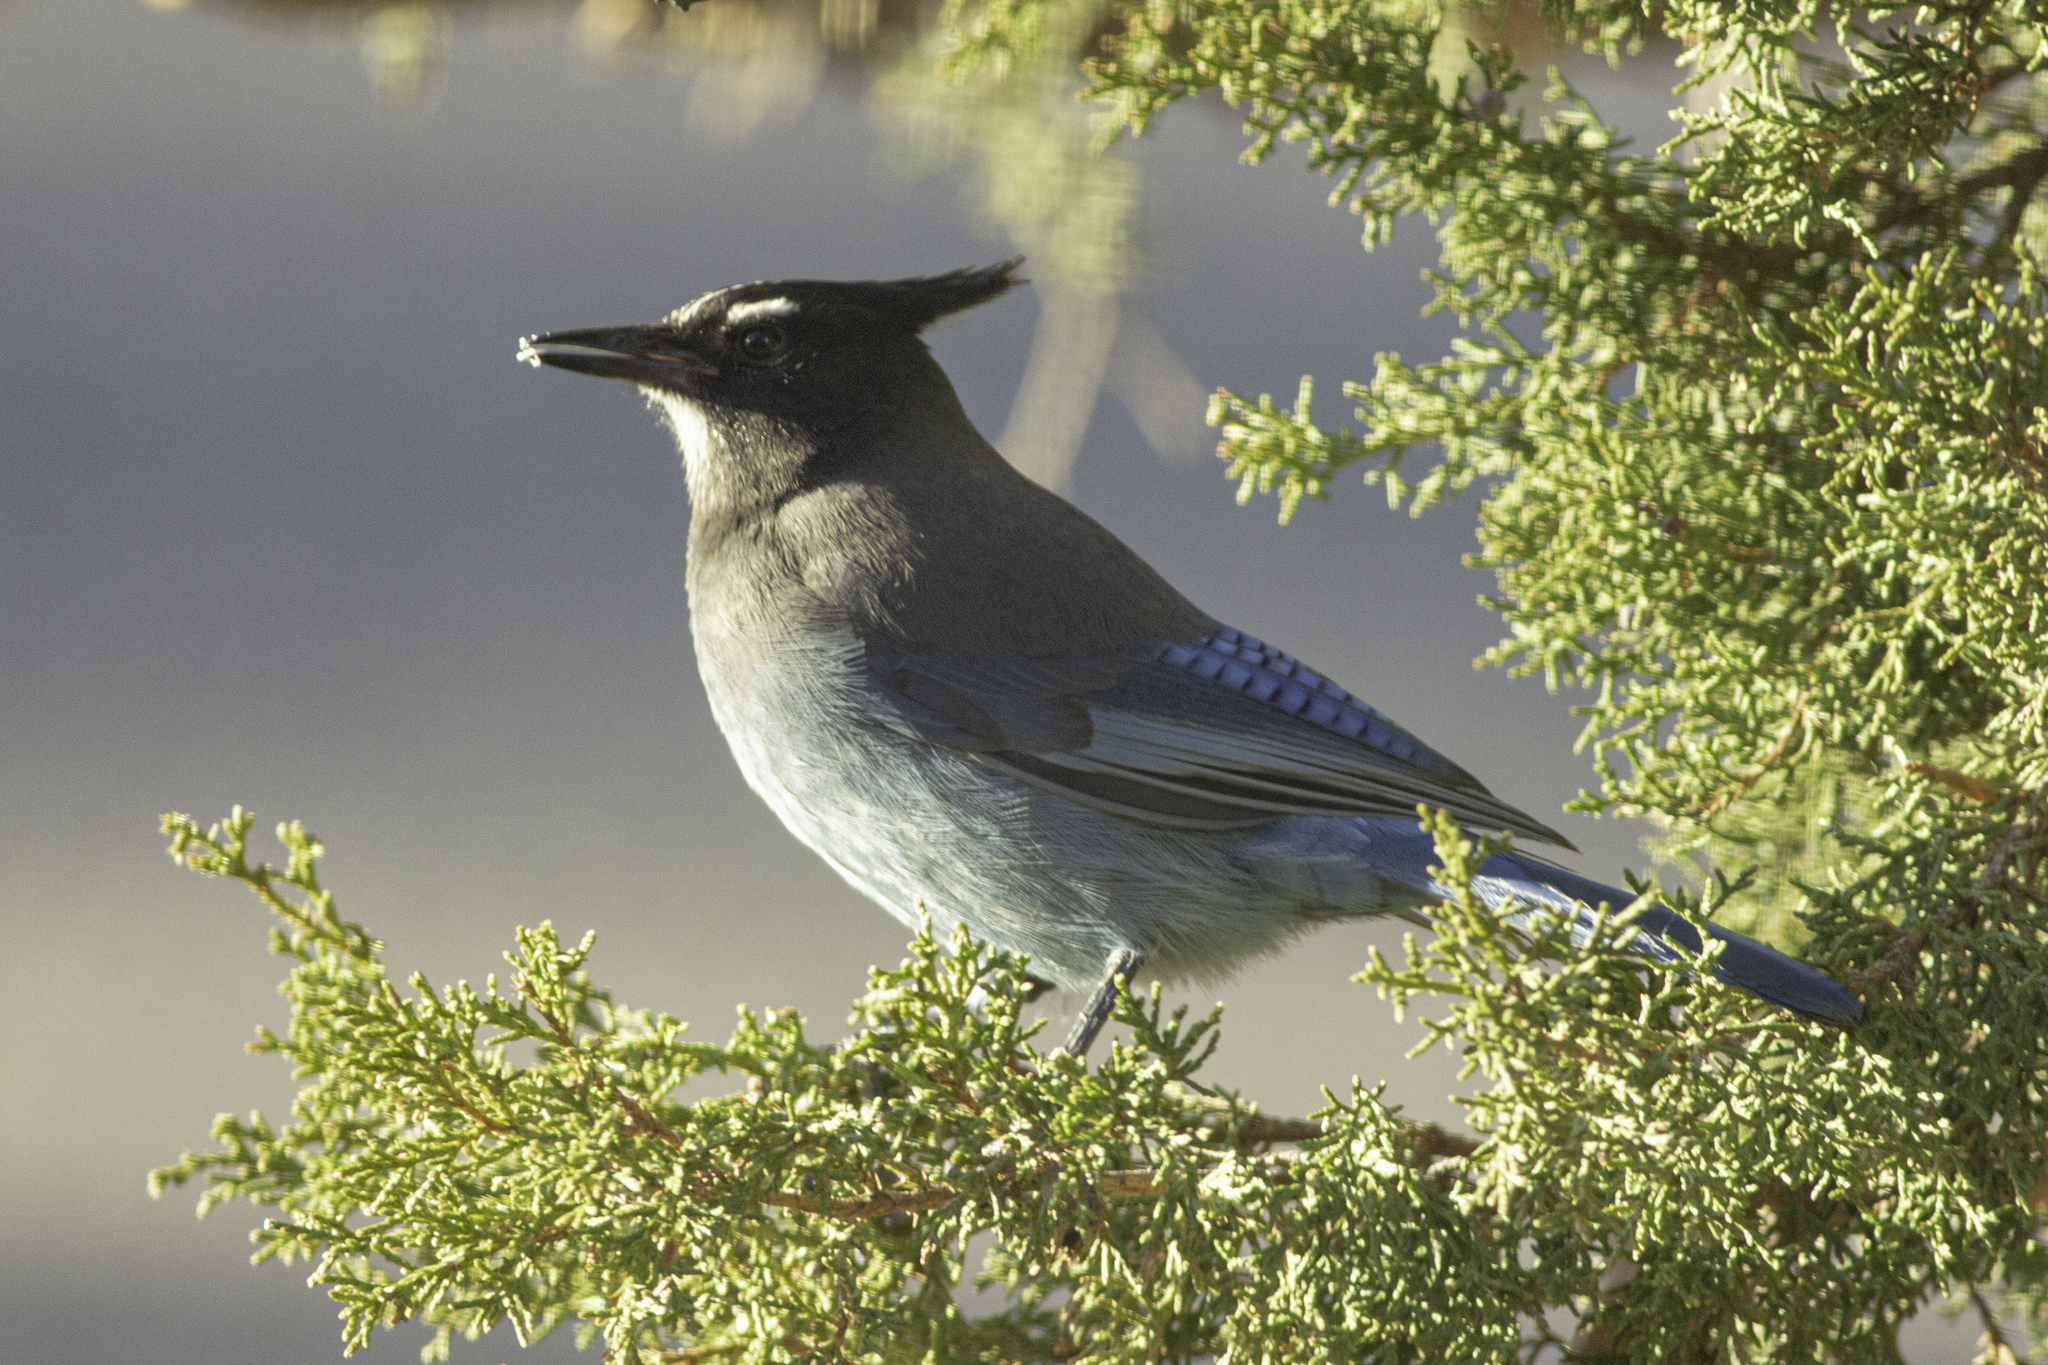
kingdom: Animalia
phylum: Chordata
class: Aves
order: Passeriformes
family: Corvidae
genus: Cyanocitta
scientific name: Cyanocitta stelleri
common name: Steller's jay
